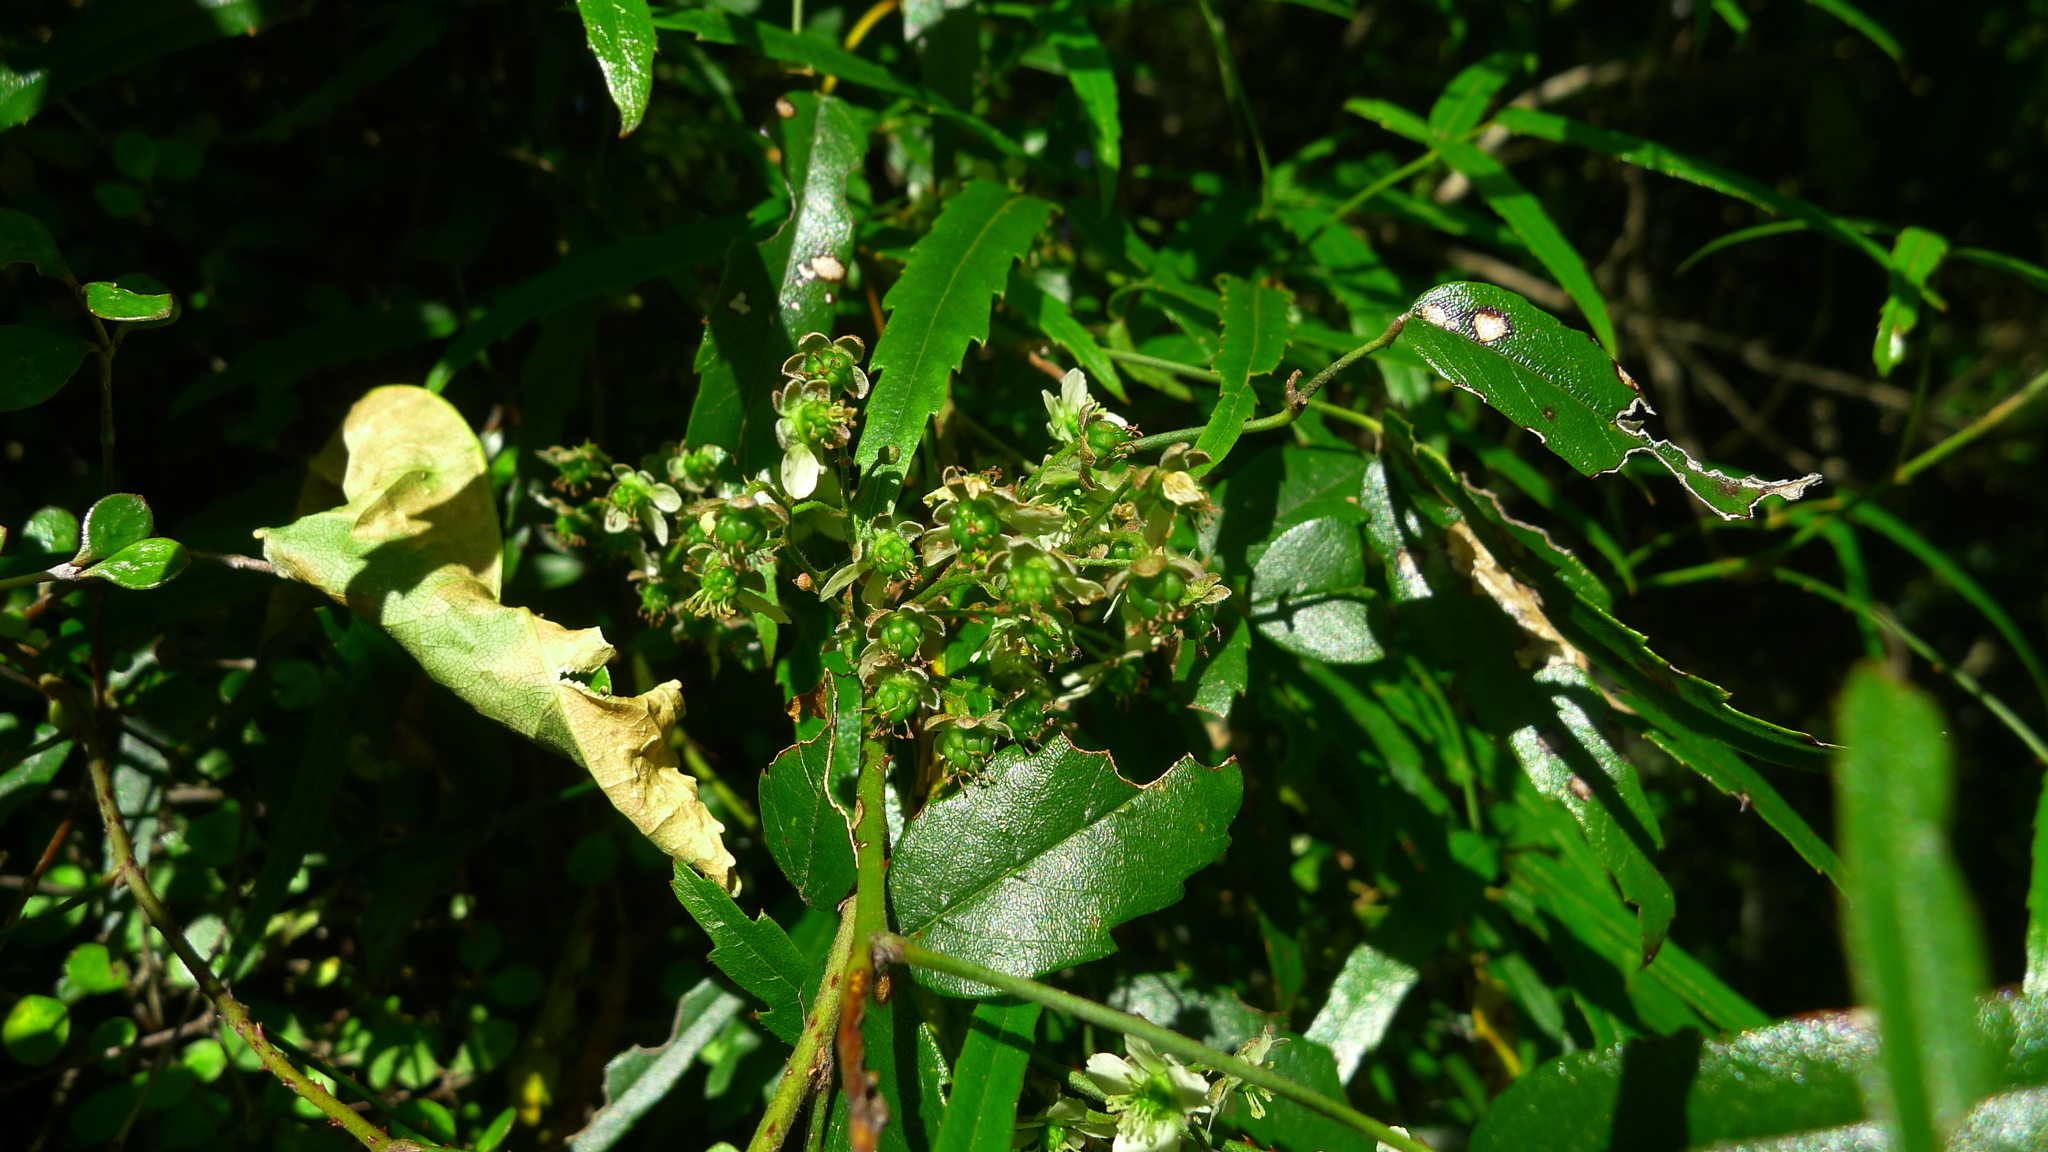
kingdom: Plantae
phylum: Tracheophyta
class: Magnoliopsida
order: Rosales
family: Rosaceae
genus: Rubus
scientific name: Rubus schmidelioides
